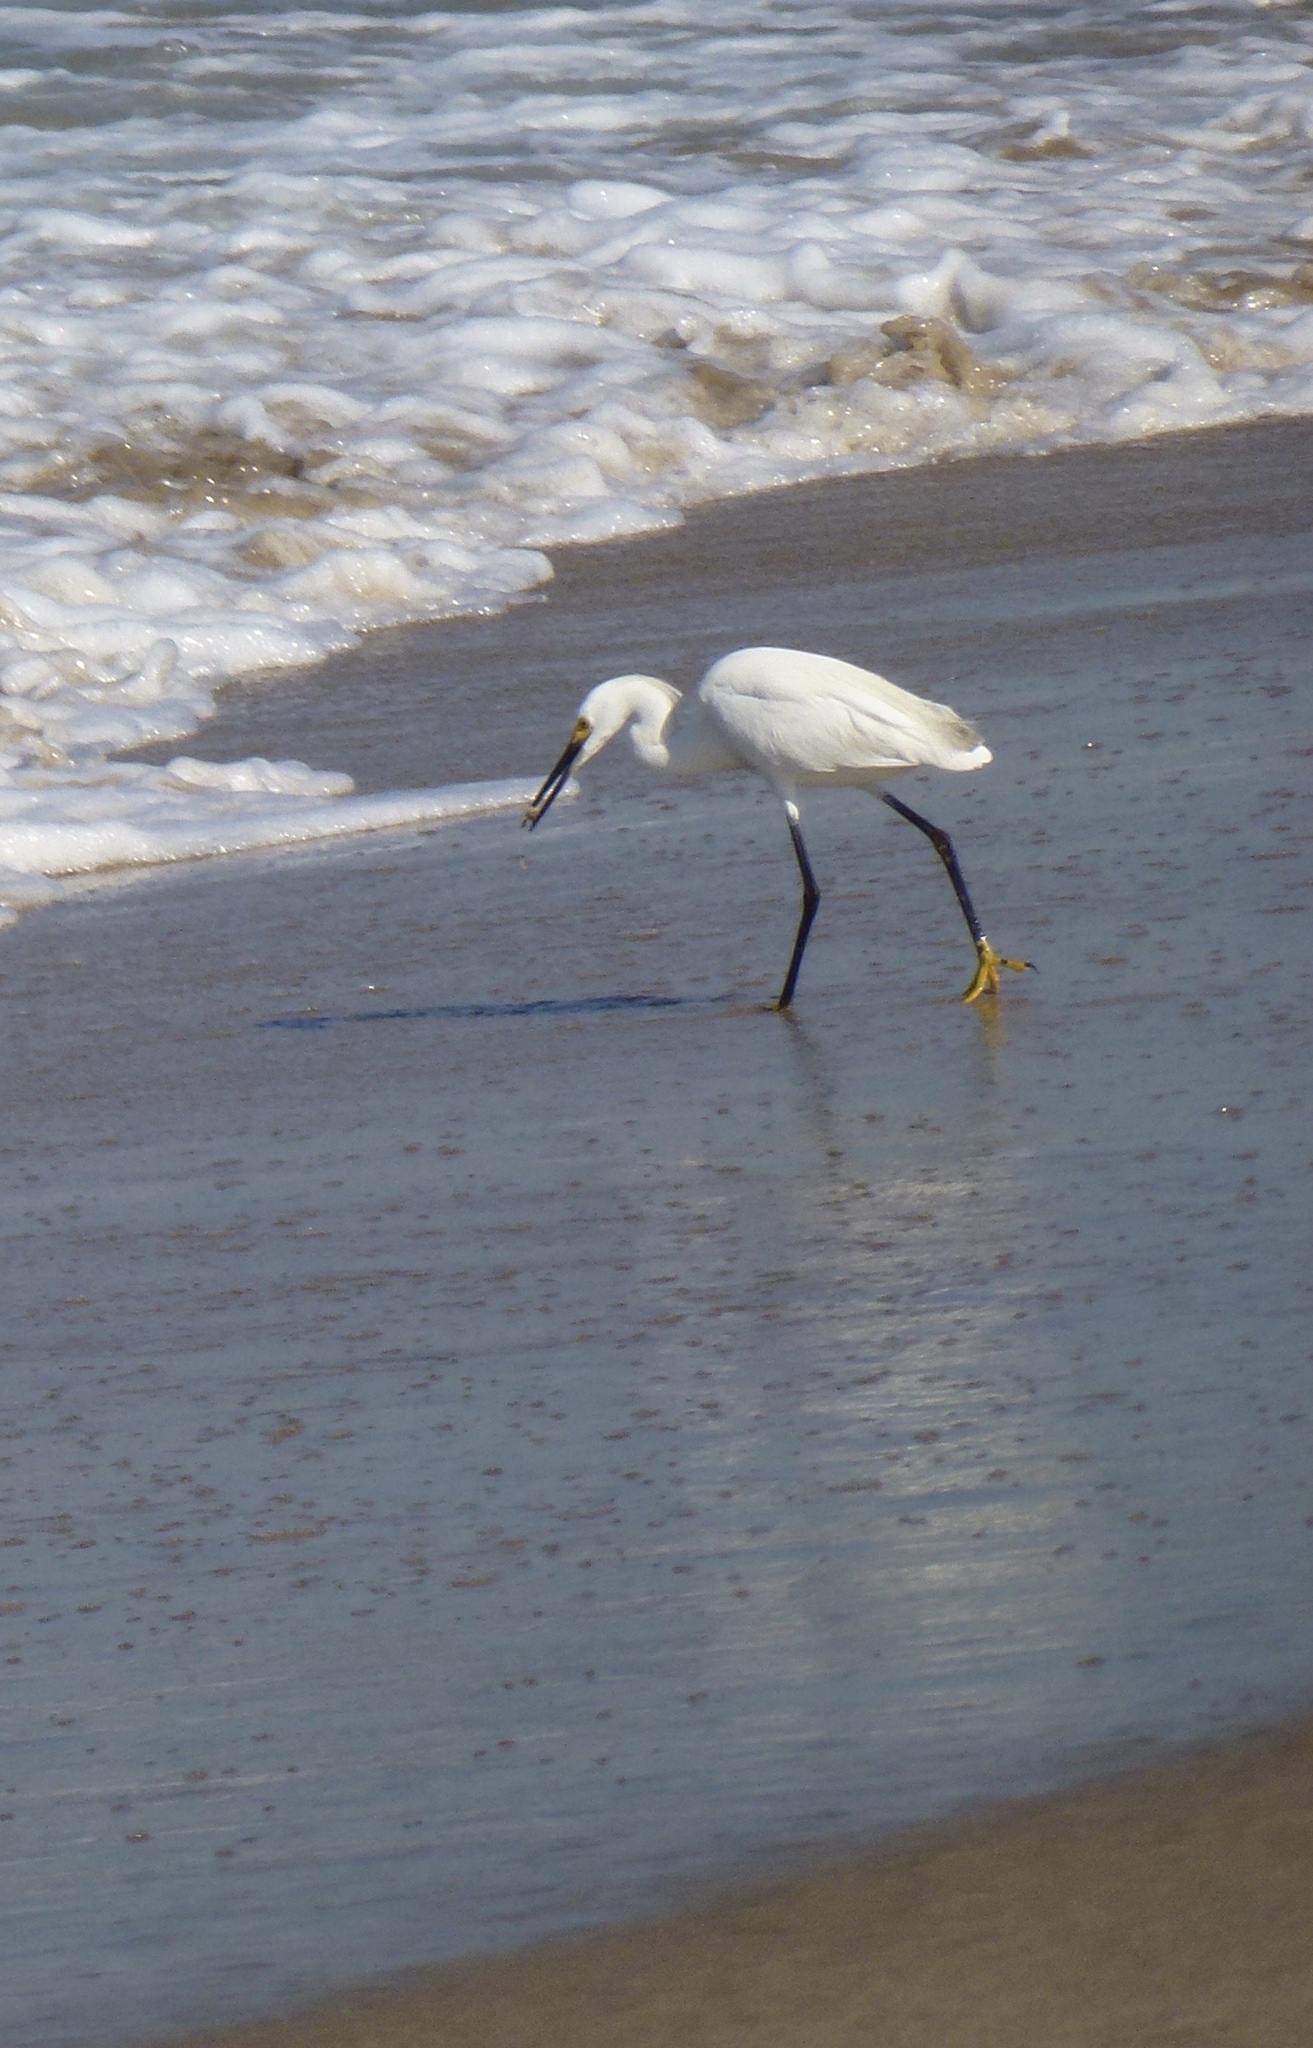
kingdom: Animalia
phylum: Chordata
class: Aves
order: Pelecaniformes
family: Ardeidae
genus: Egretta
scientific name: Egretta thula
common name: Snowy egret
